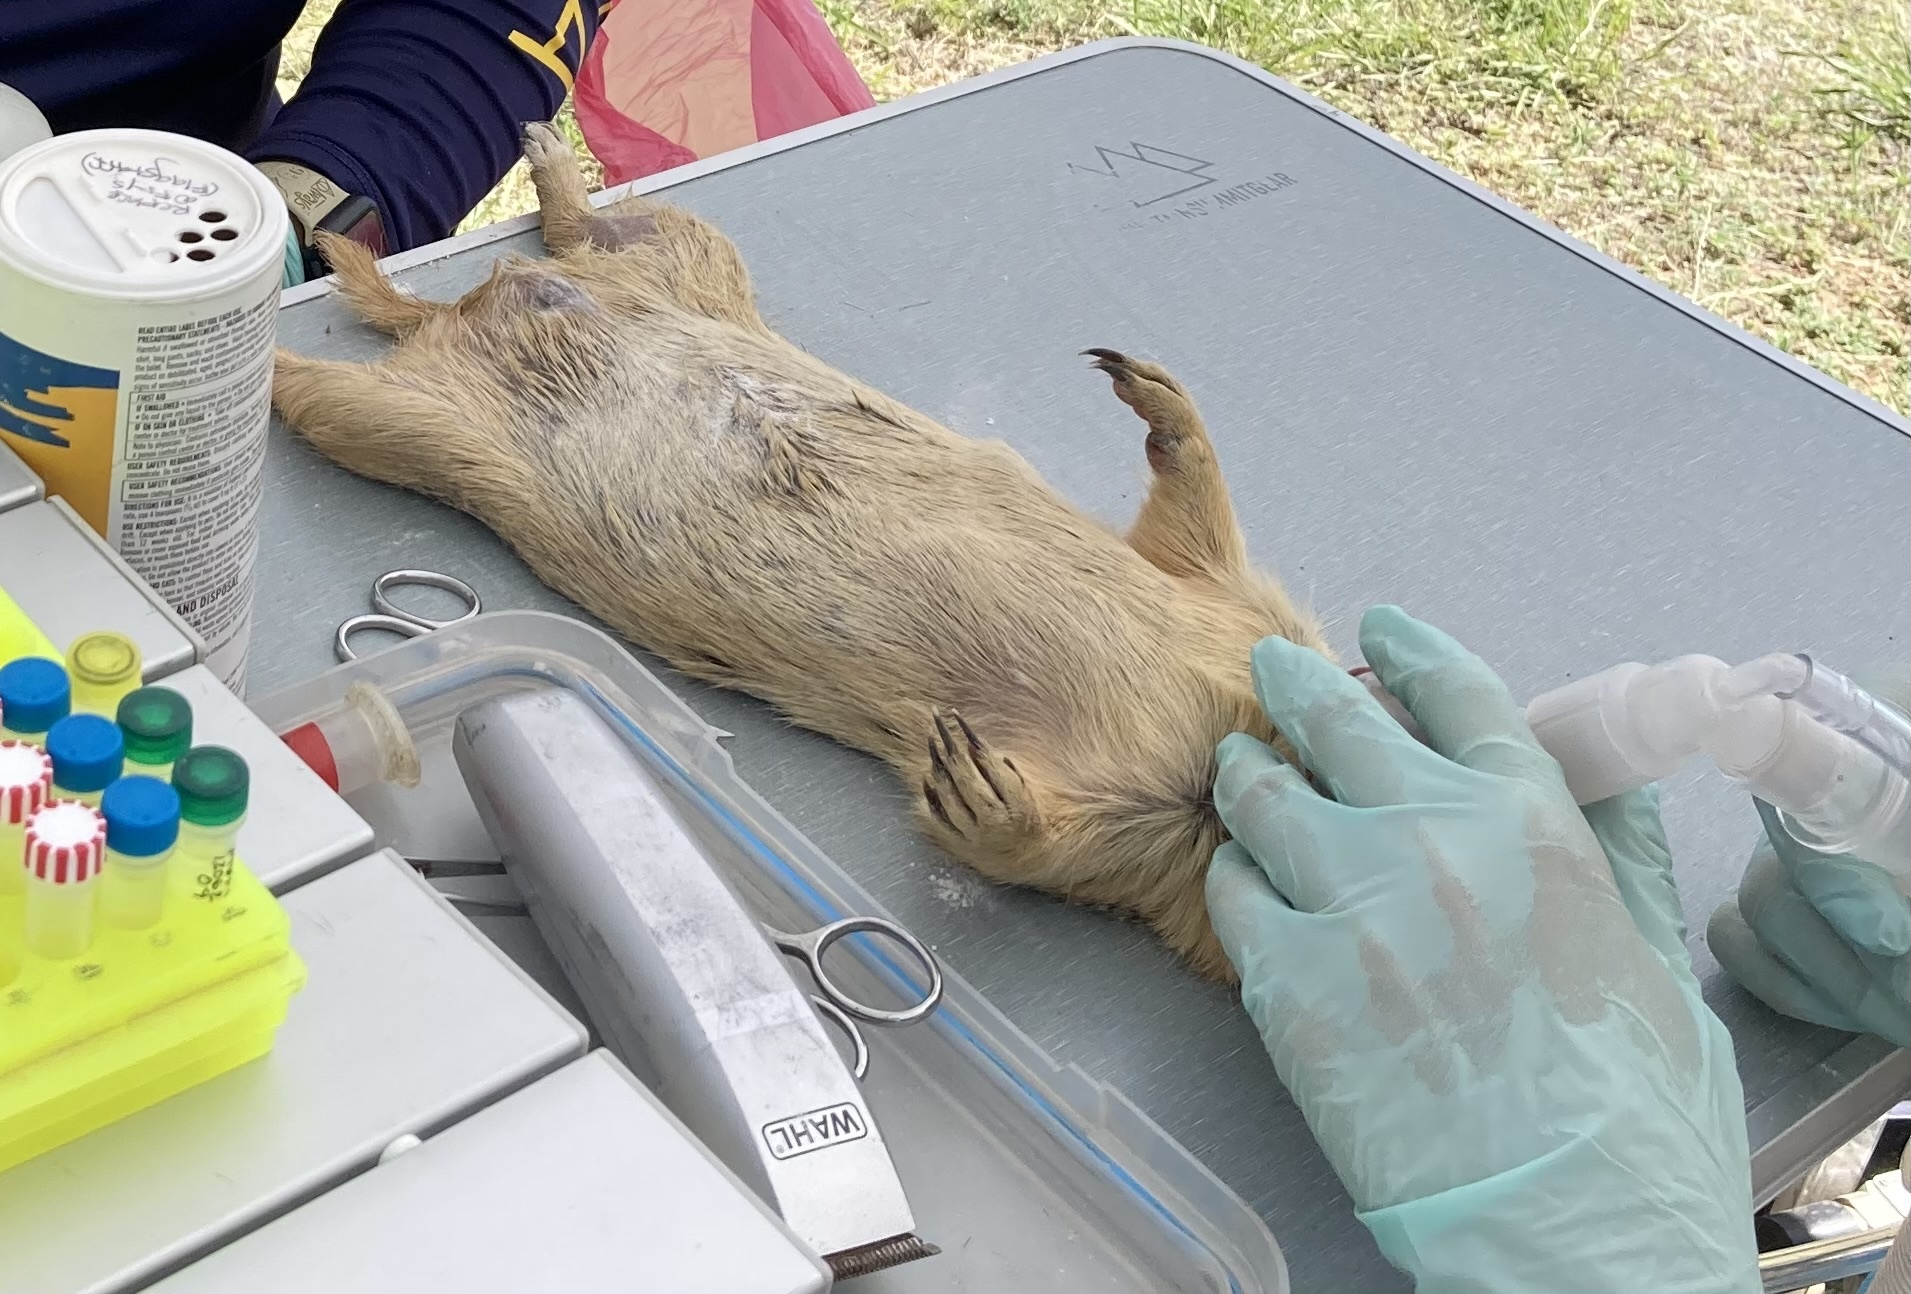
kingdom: Animalia
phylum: Chordata
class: Mammalia
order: Rodentia
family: Sciuridae
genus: Cynomys
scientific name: Cynomys gunnisoni
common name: Gunnison's prairie dog
